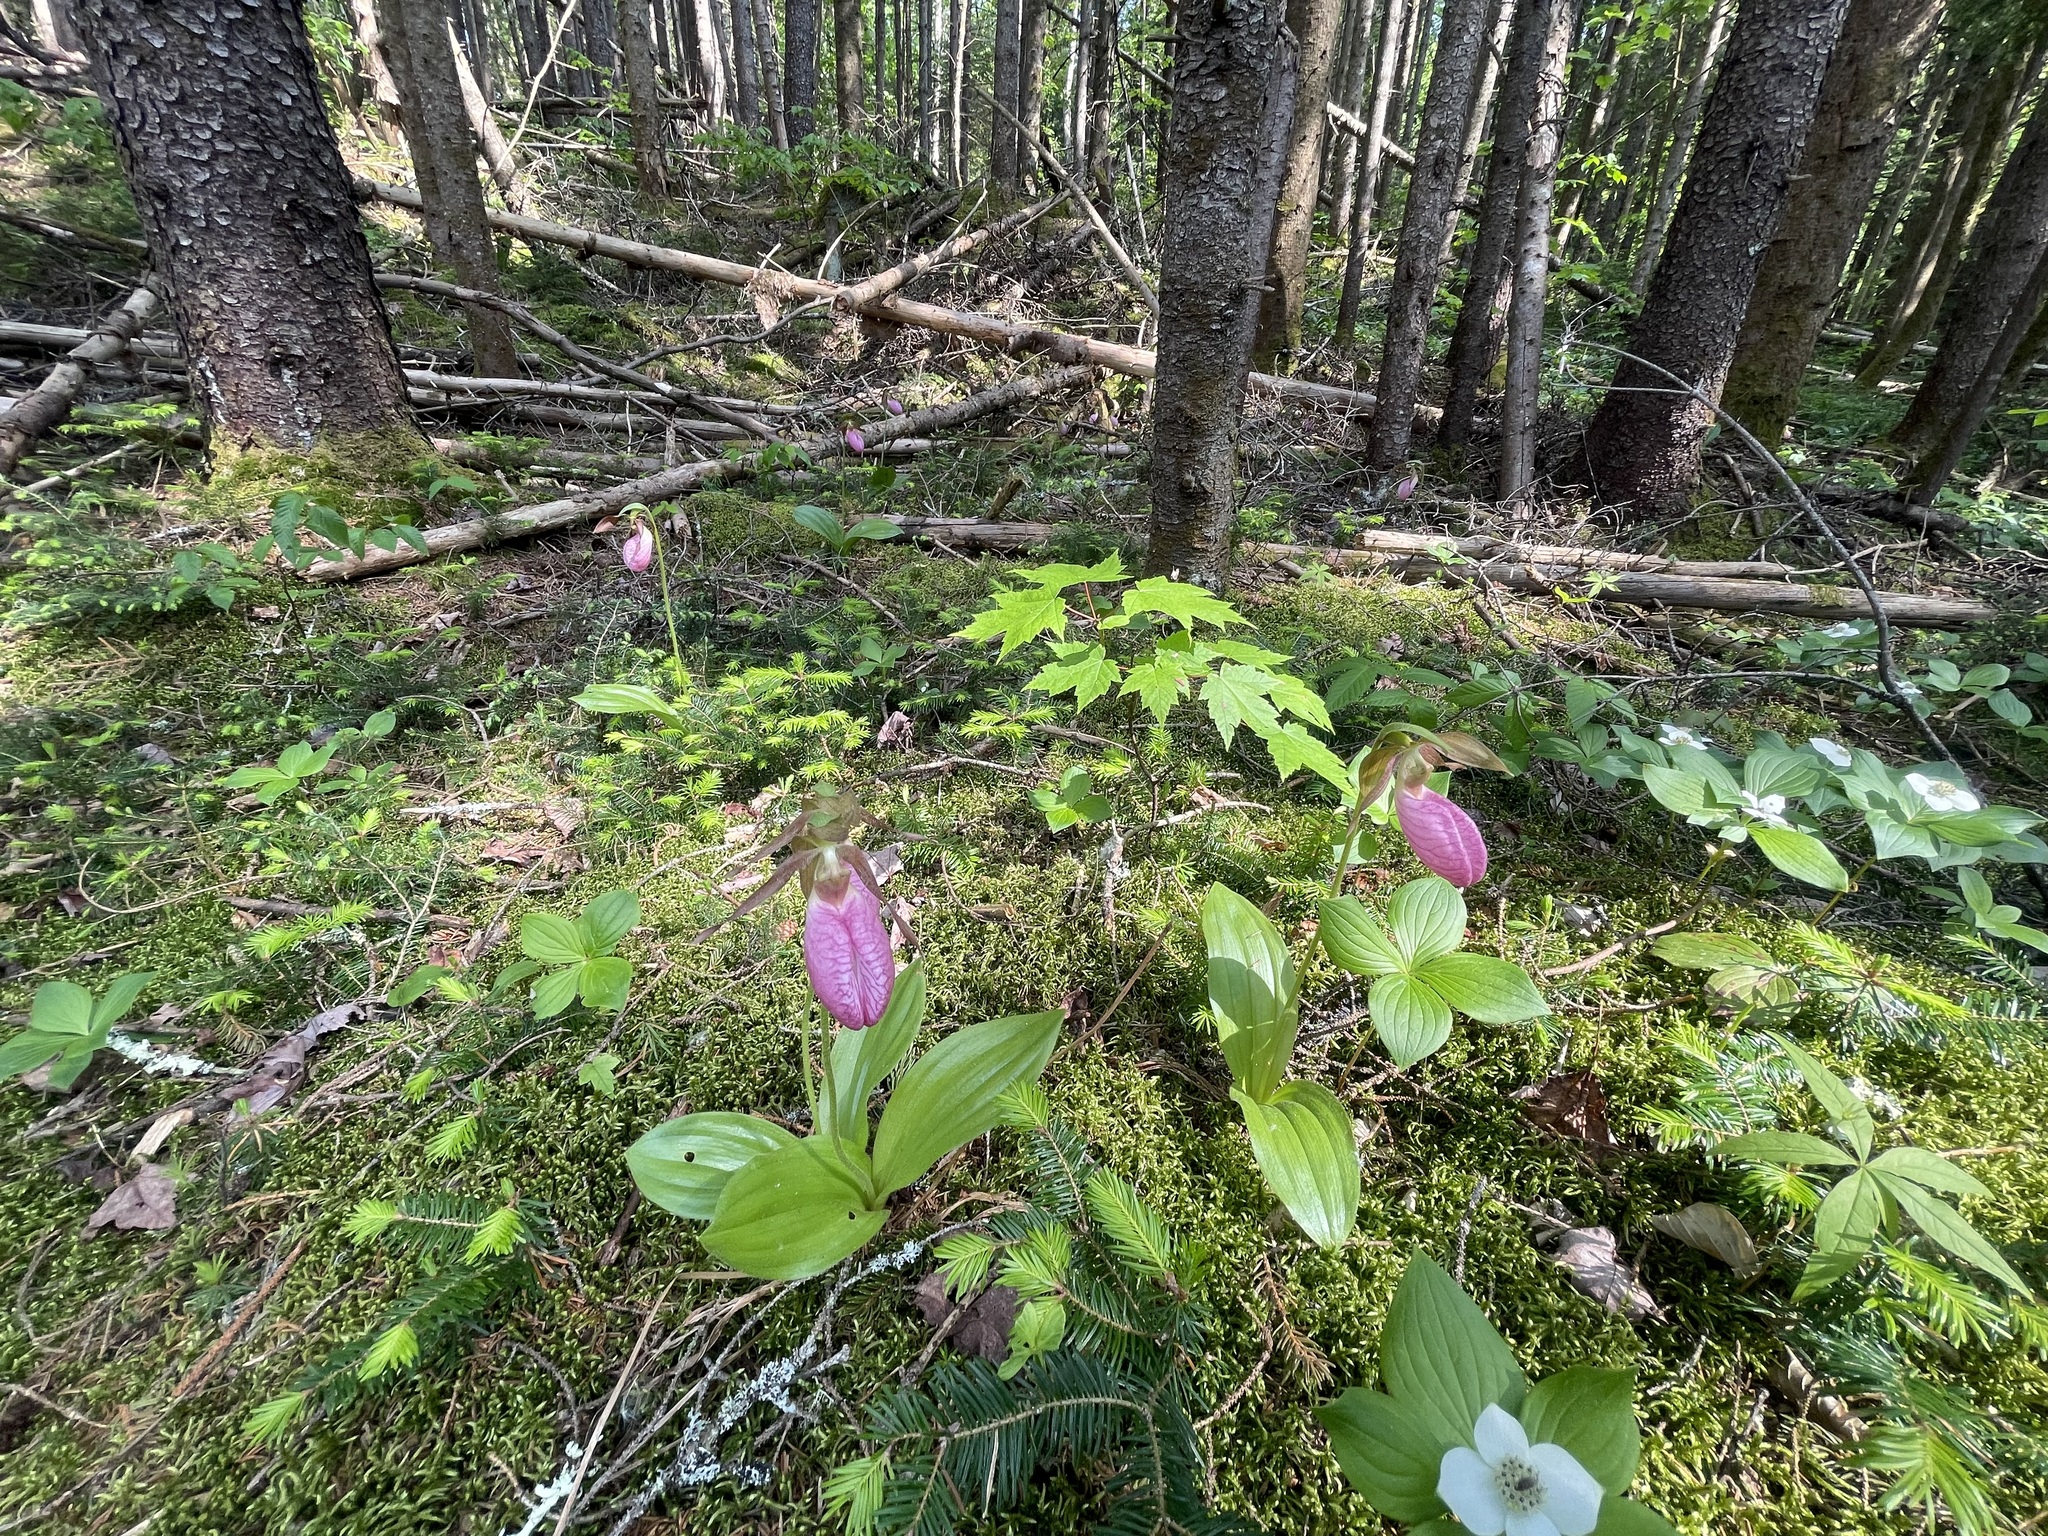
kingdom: Plantae
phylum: Tracheophyta
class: Liliopsida
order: Asparagales
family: Orchidaceae
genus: Cypripedium
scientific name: Cypripedium acaule
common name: Pink lady's-slipper
